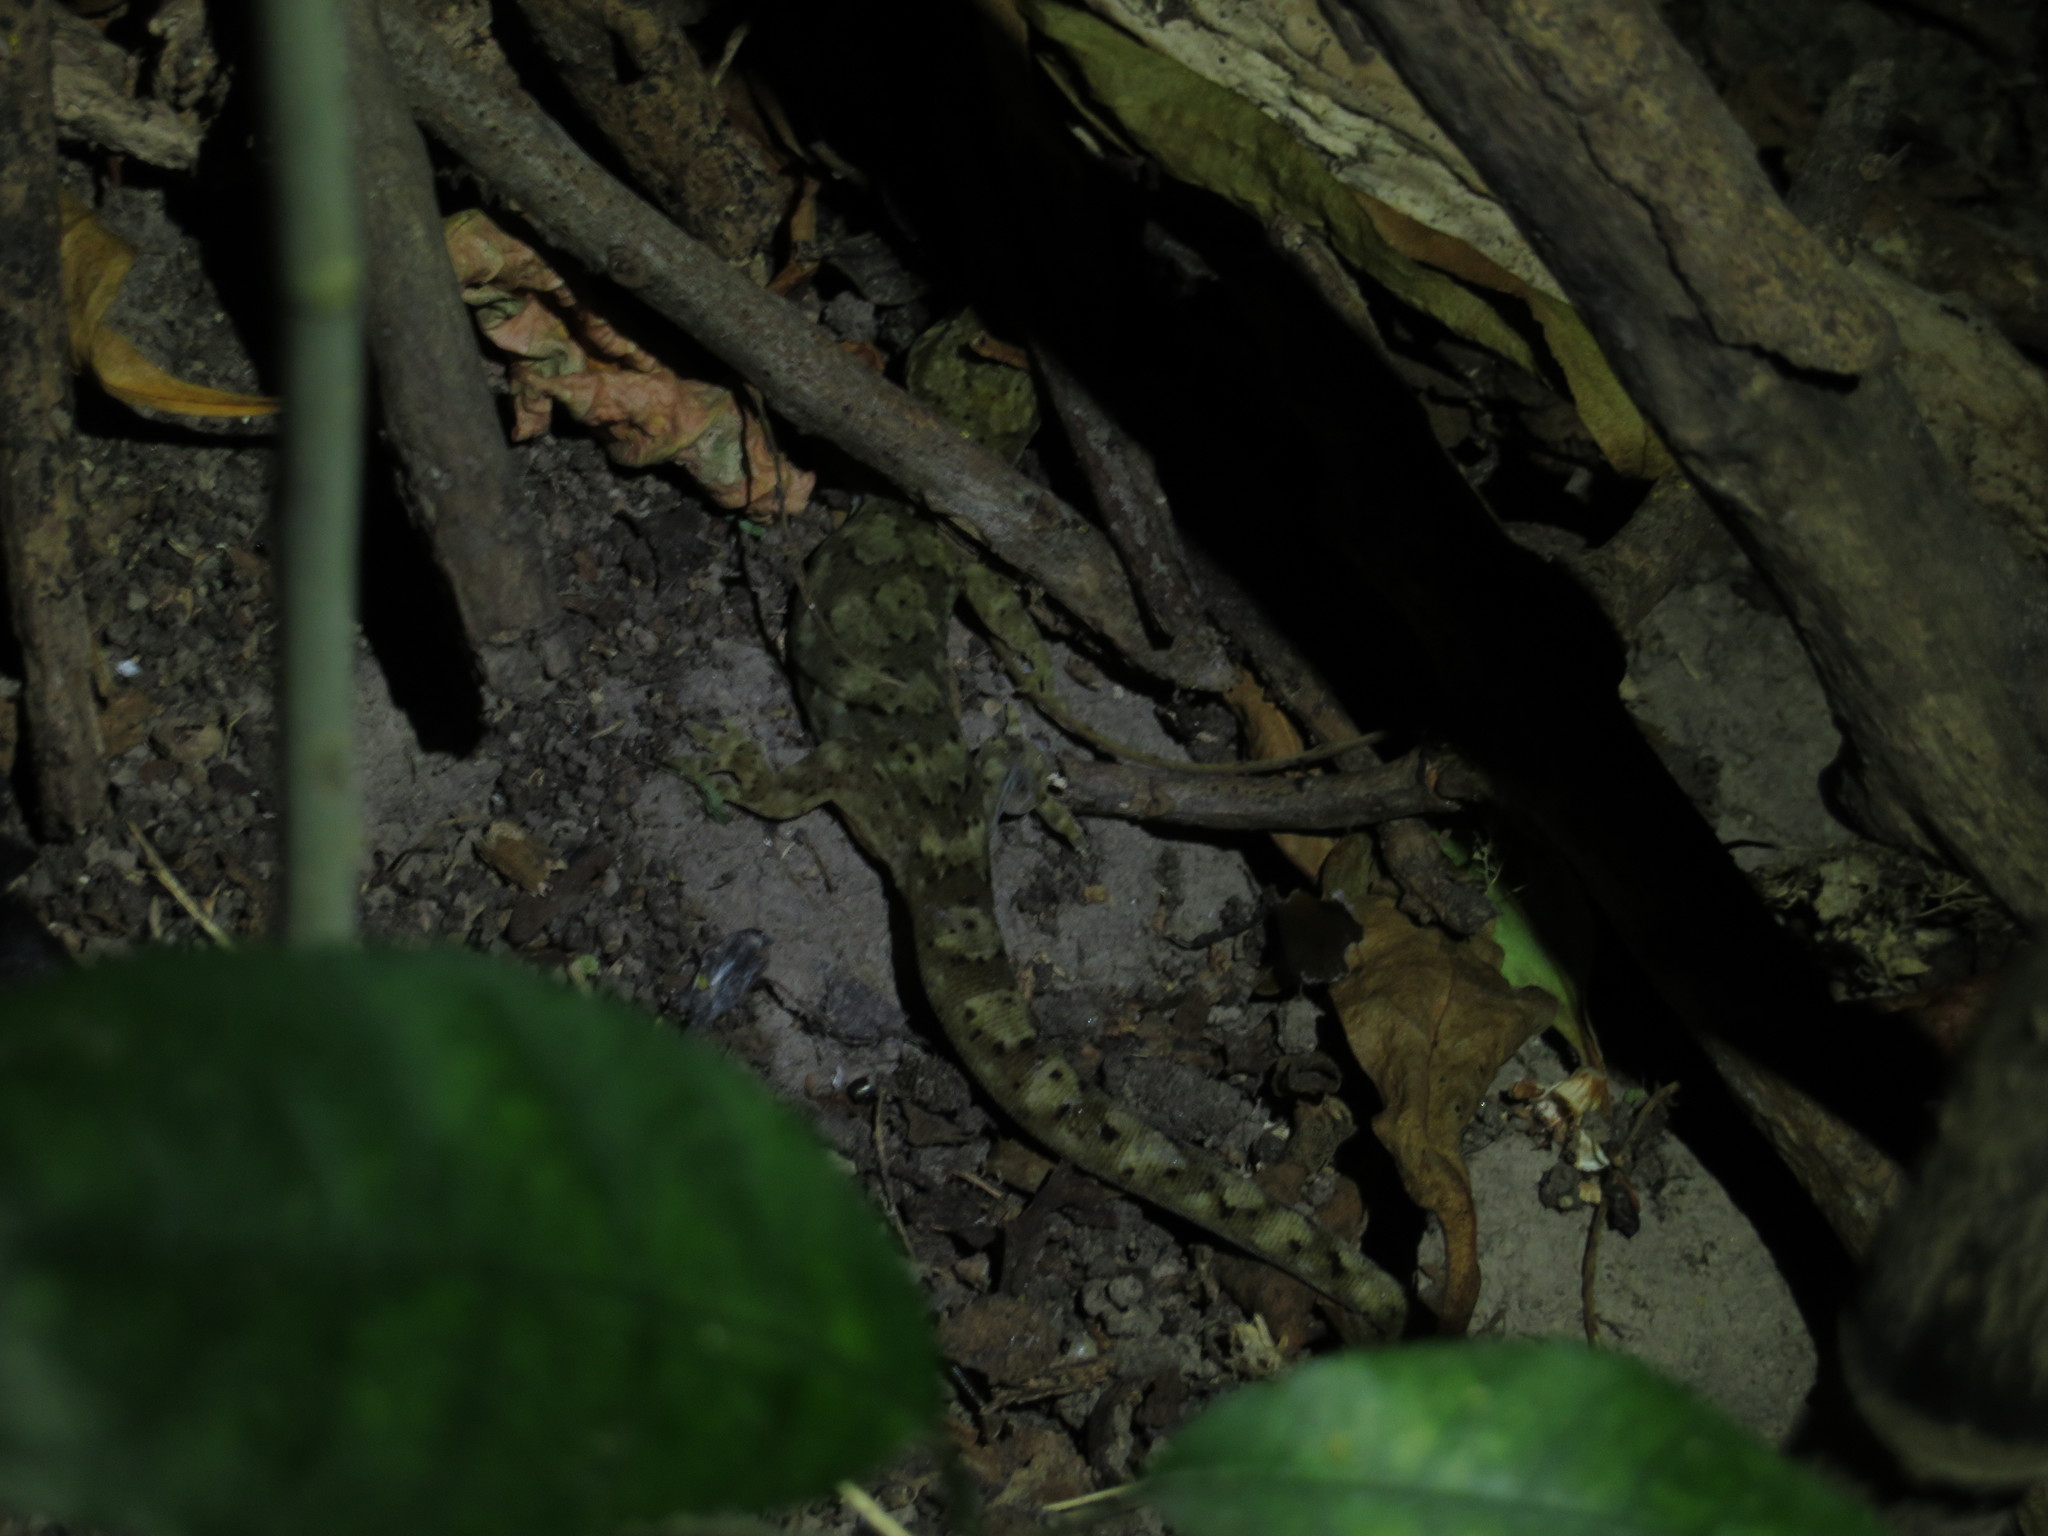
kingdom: Animalia
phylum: Chordata
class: Squamata
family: Diplodactylidae
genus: Woodworthia
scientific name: Woodworthia maculata
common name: Raukawa gecko
